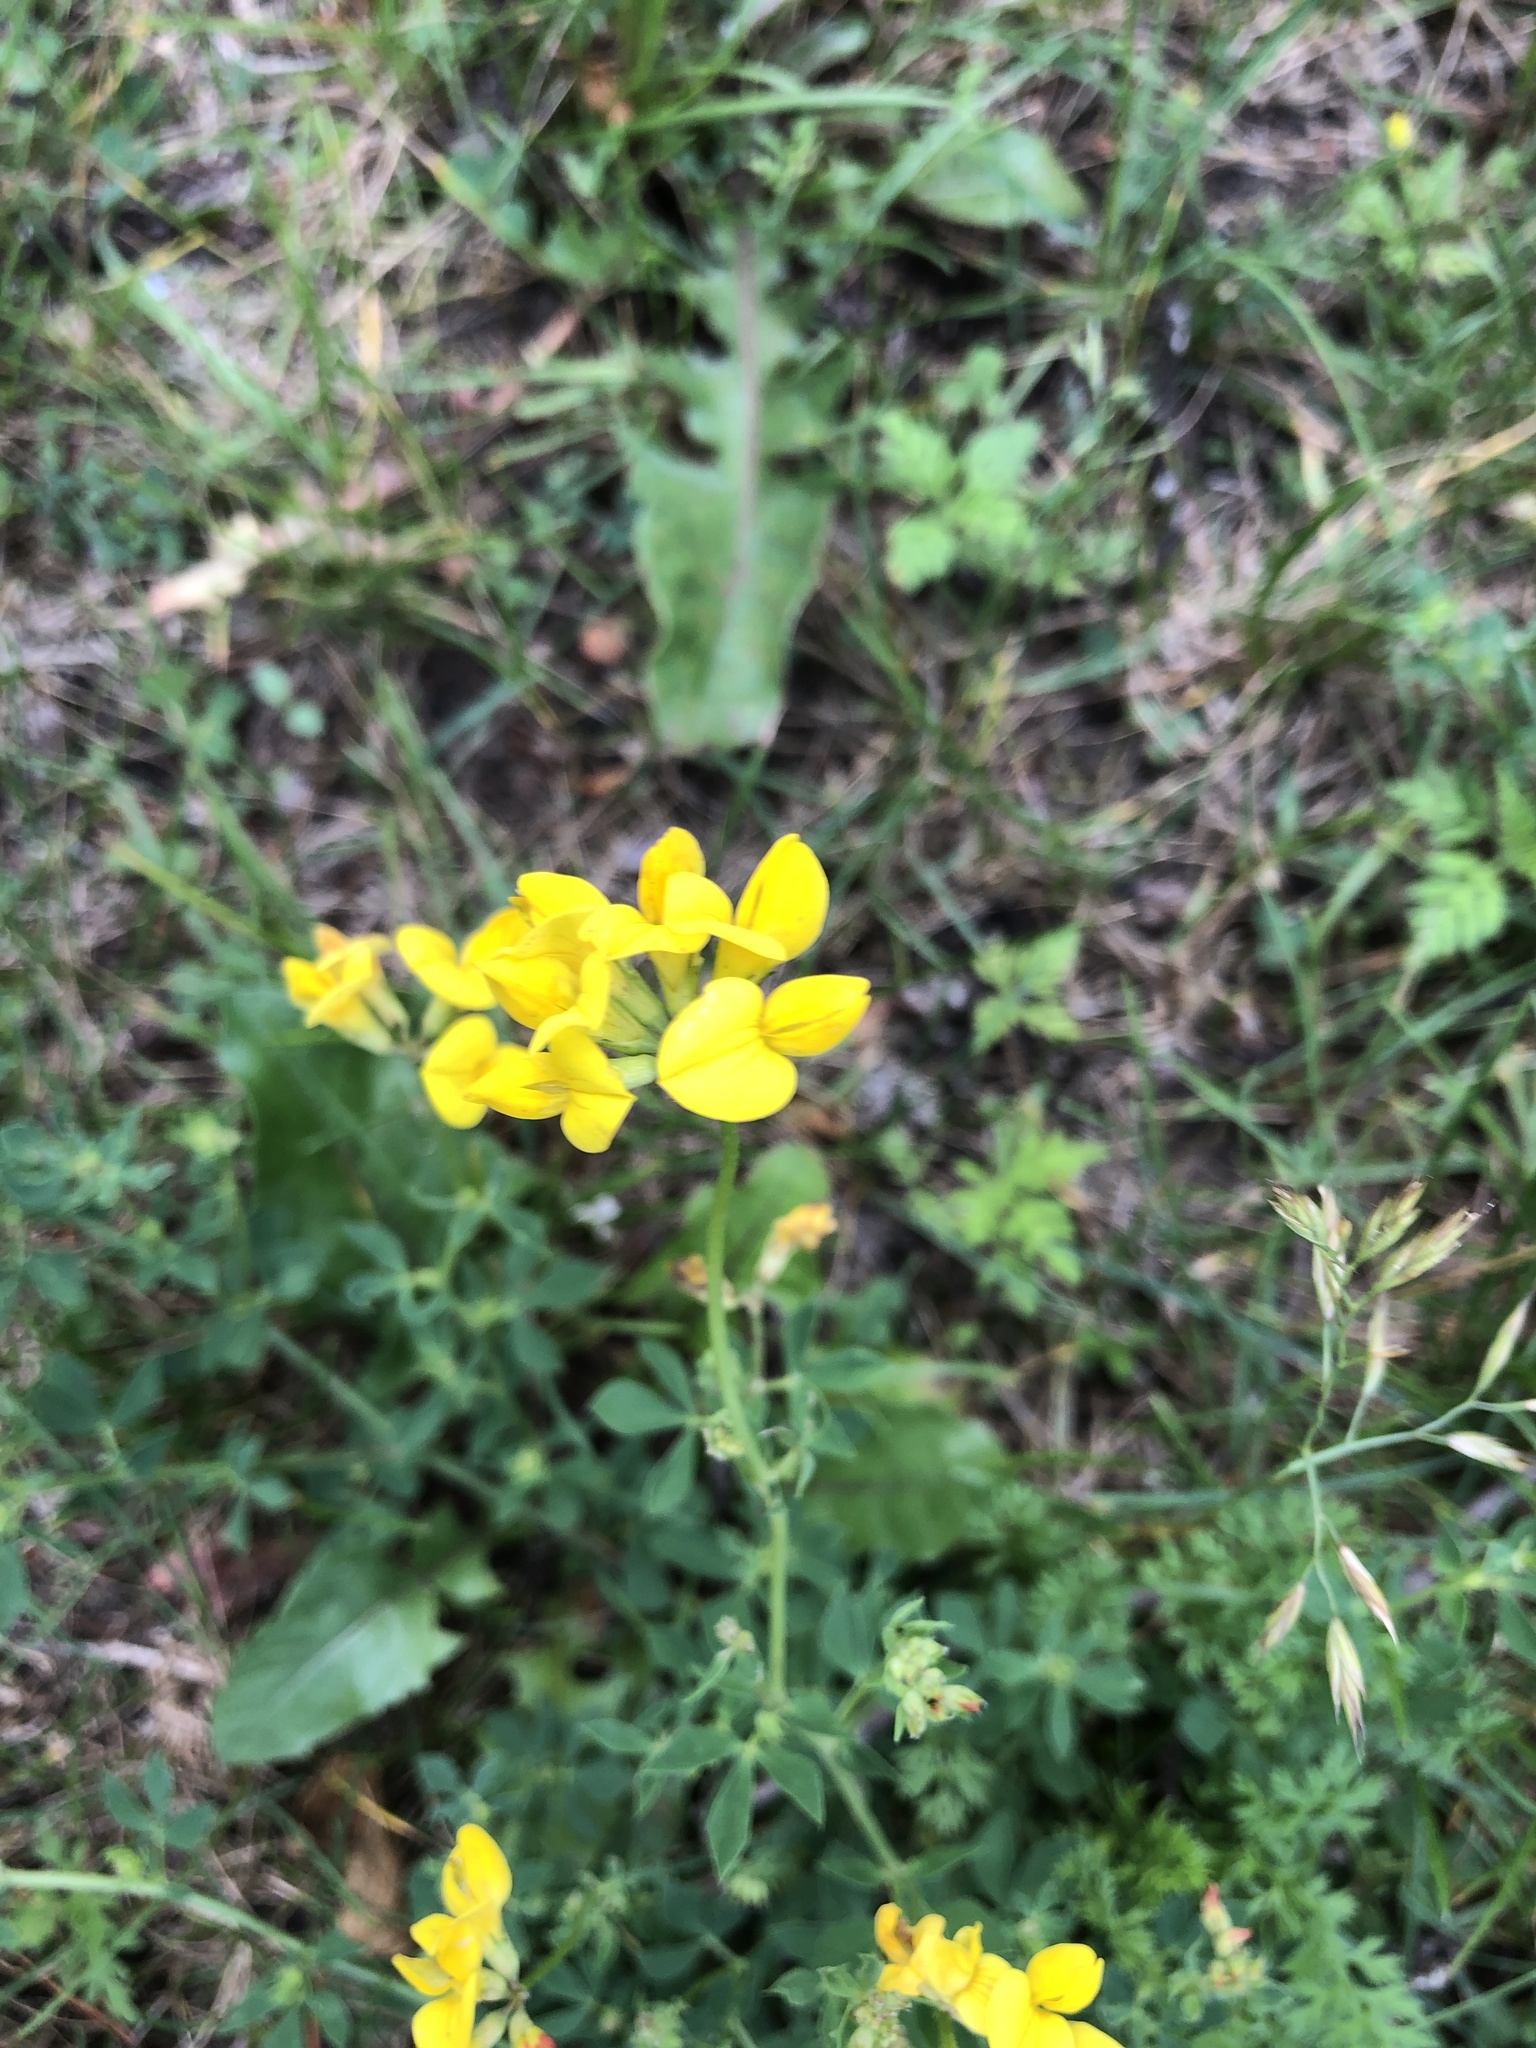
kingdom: Plantae
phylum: Tracheophyta
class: Magnoliopsida
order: Fabales
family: Fabaceae
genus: Lotus
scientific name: Lotus corniculatus
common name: Common bird's-foot-trefoil
